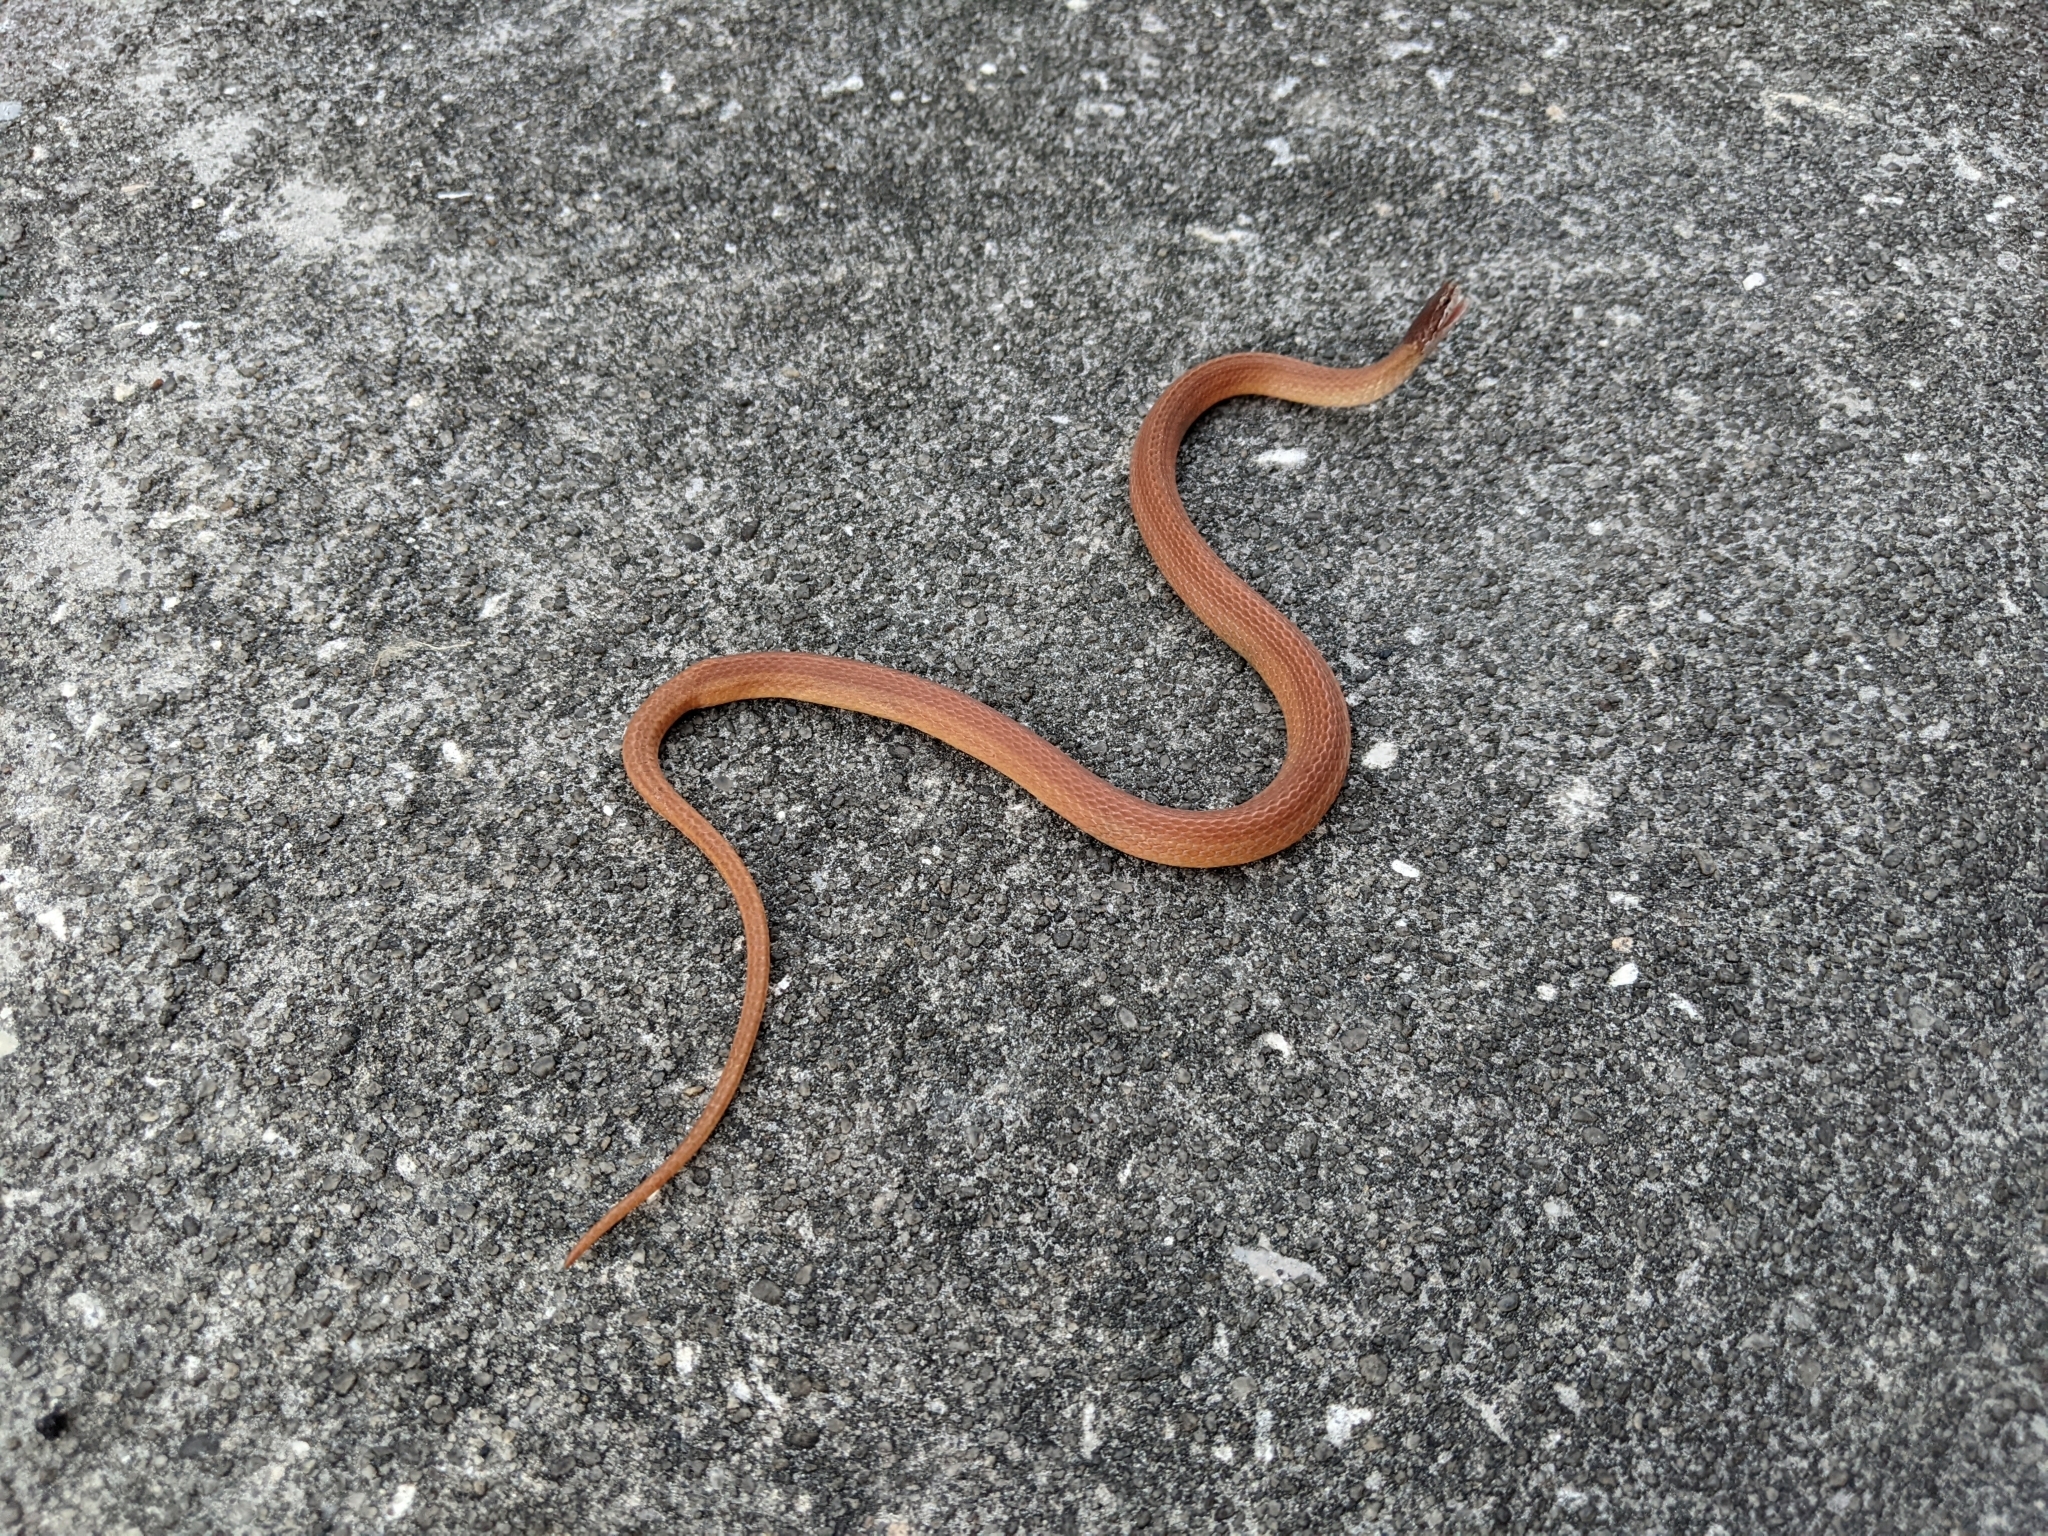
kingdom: Animalia
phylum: Chordata
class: Squamata
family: Colubridae
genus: Rhadinaea
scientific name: Rhadinaea flavilata
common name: Pine woods littersnake
